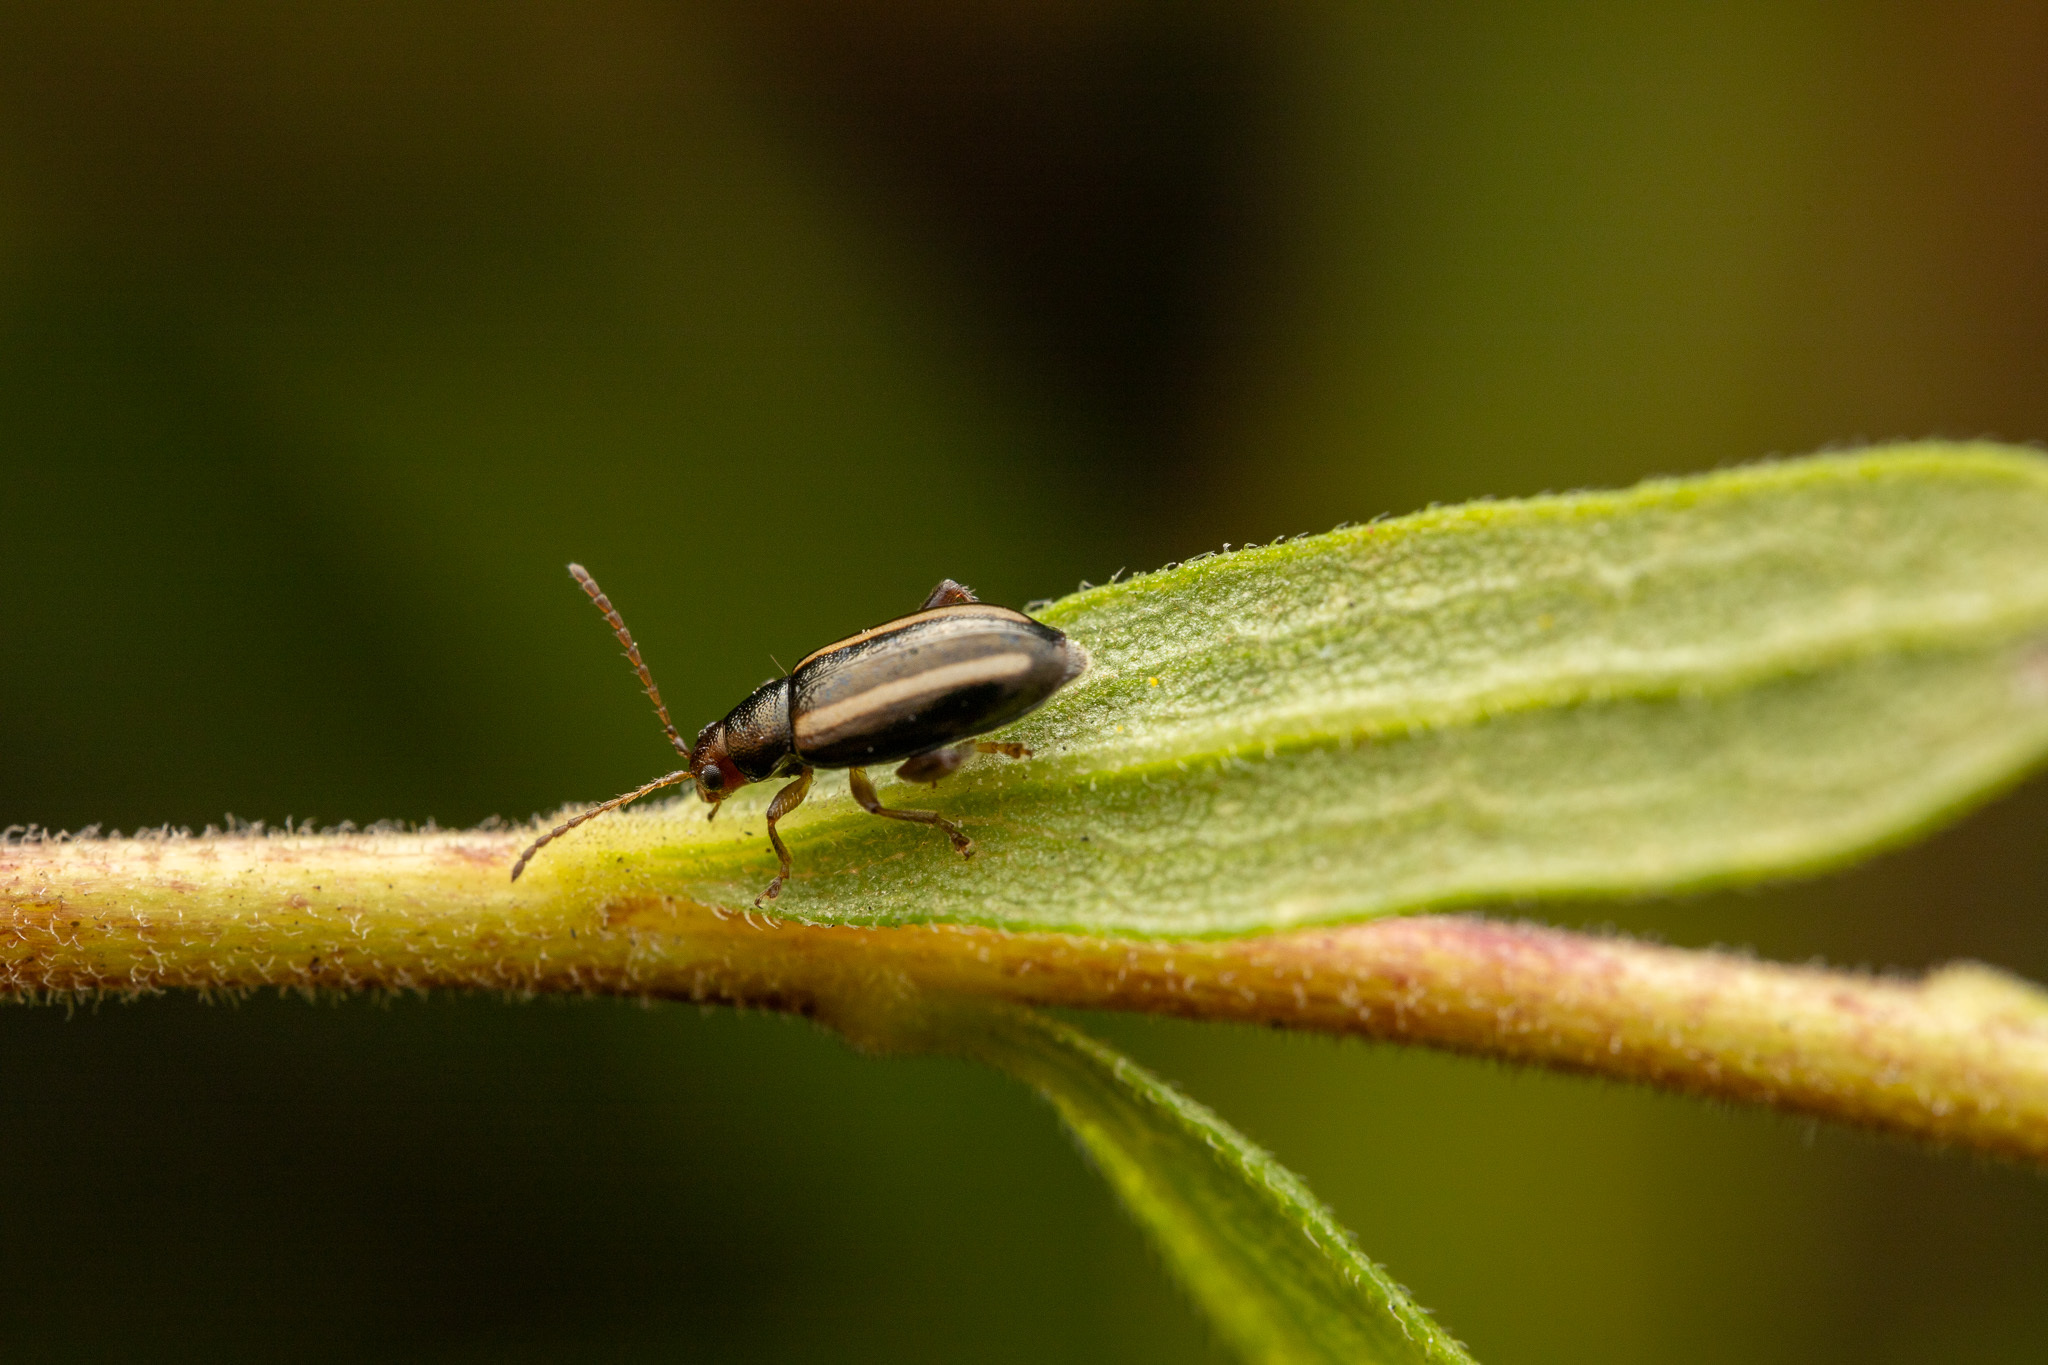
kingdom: Animalia
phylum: Arthropoda
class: Insecta
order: Coleoptera
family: Chrysomelidae
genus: Systena
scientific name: Systena elongata
